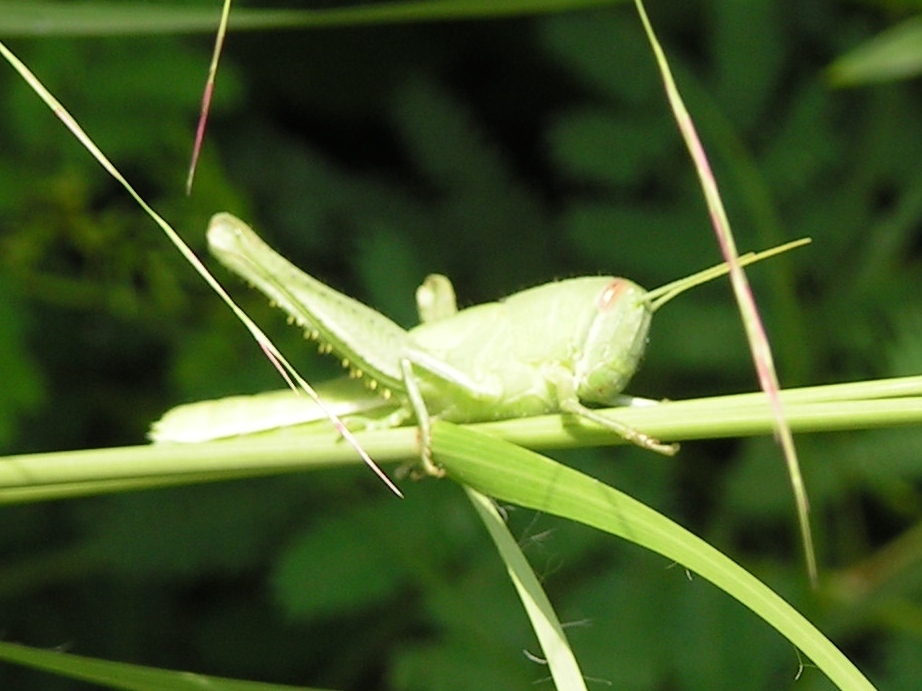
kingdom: Animalia
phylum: Arthropoda
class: Insecta
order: Orthoptera
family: Acrididae
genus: Schistocerca
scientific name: Schistocerca
